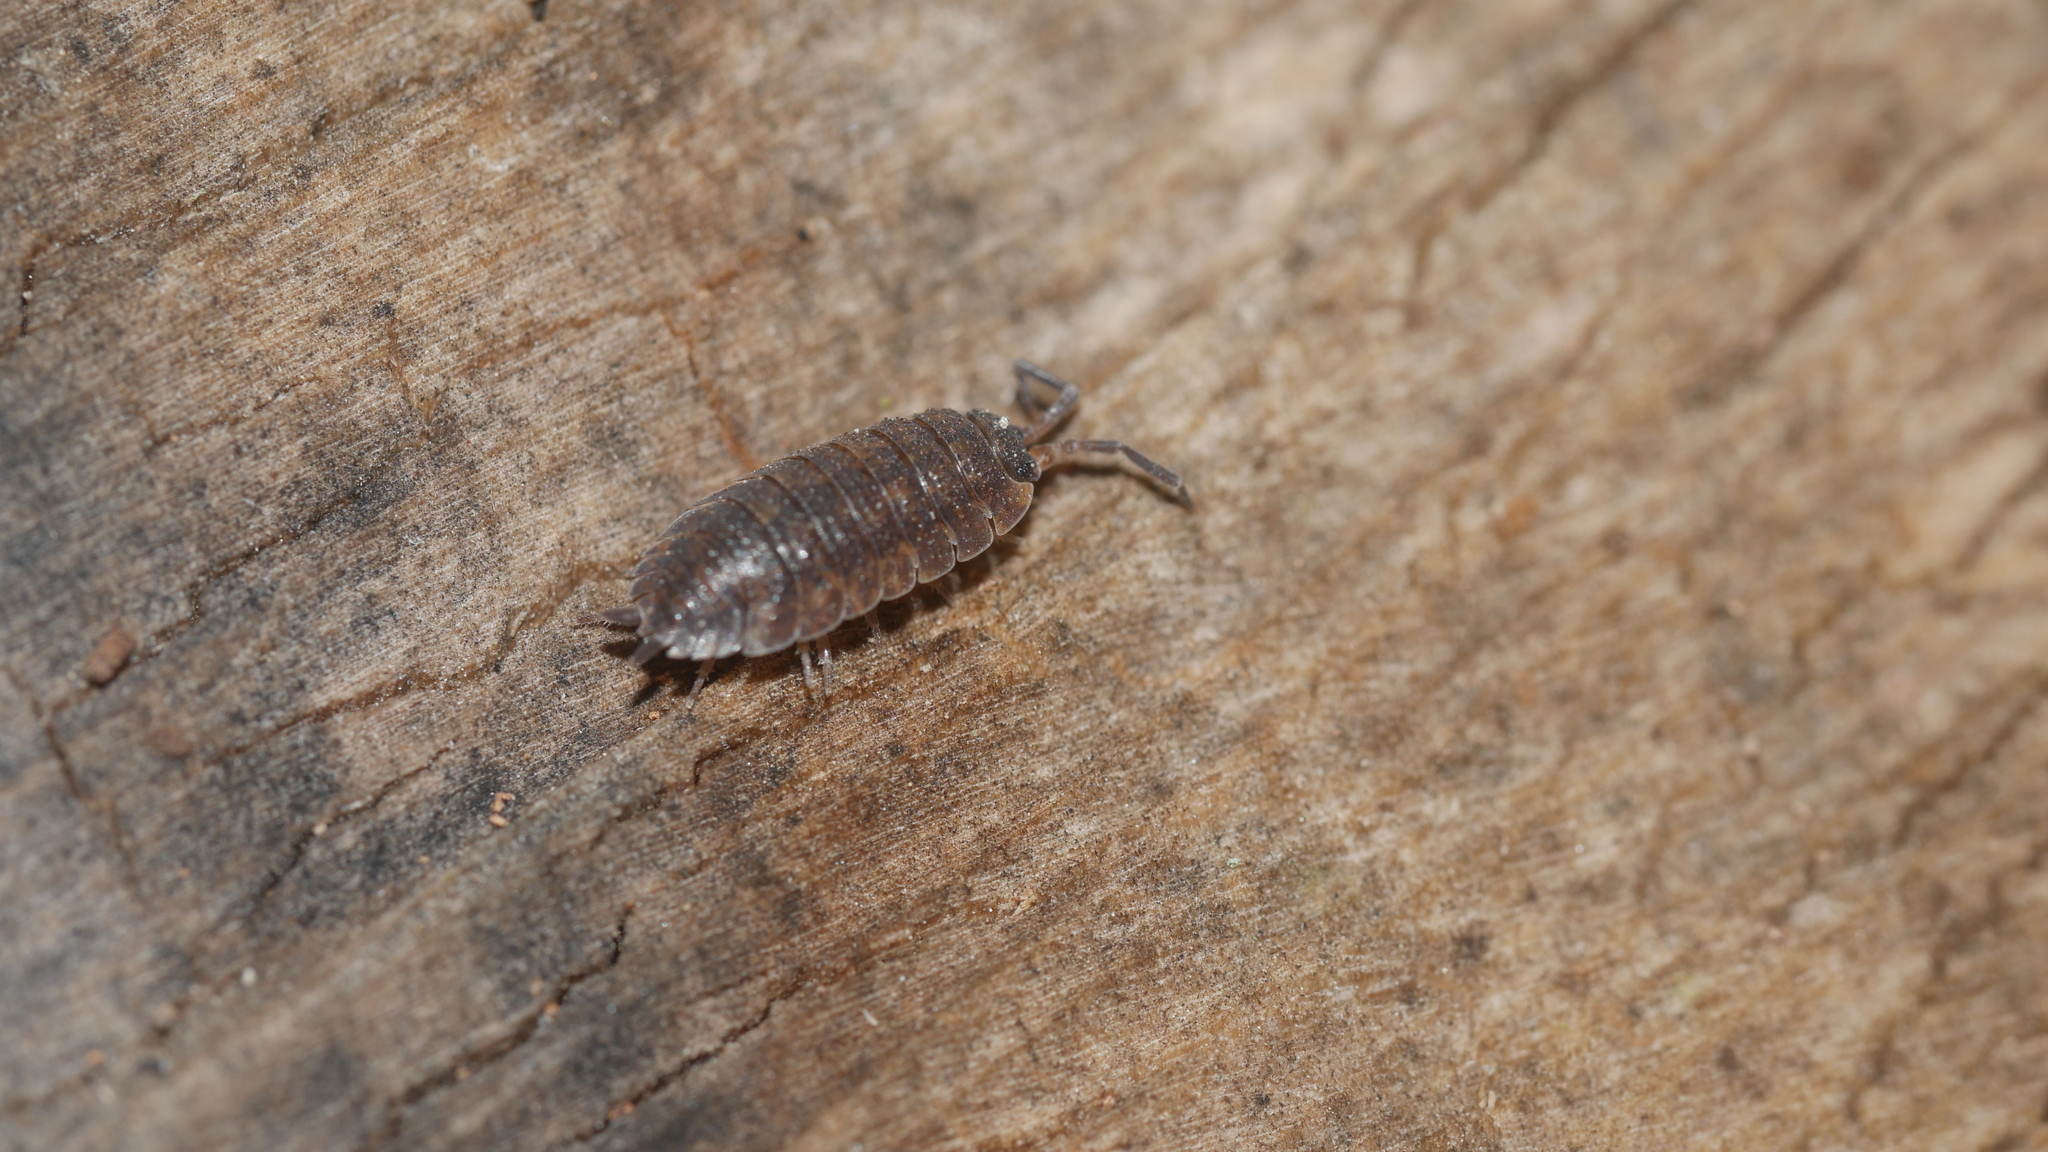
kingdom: Animalia
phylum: Arthropoda
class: Malacostraca
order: Isopoda
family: Porcellionidae
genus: Porcellio
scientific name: Porcellio scaber
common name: Common rough woodlouse
